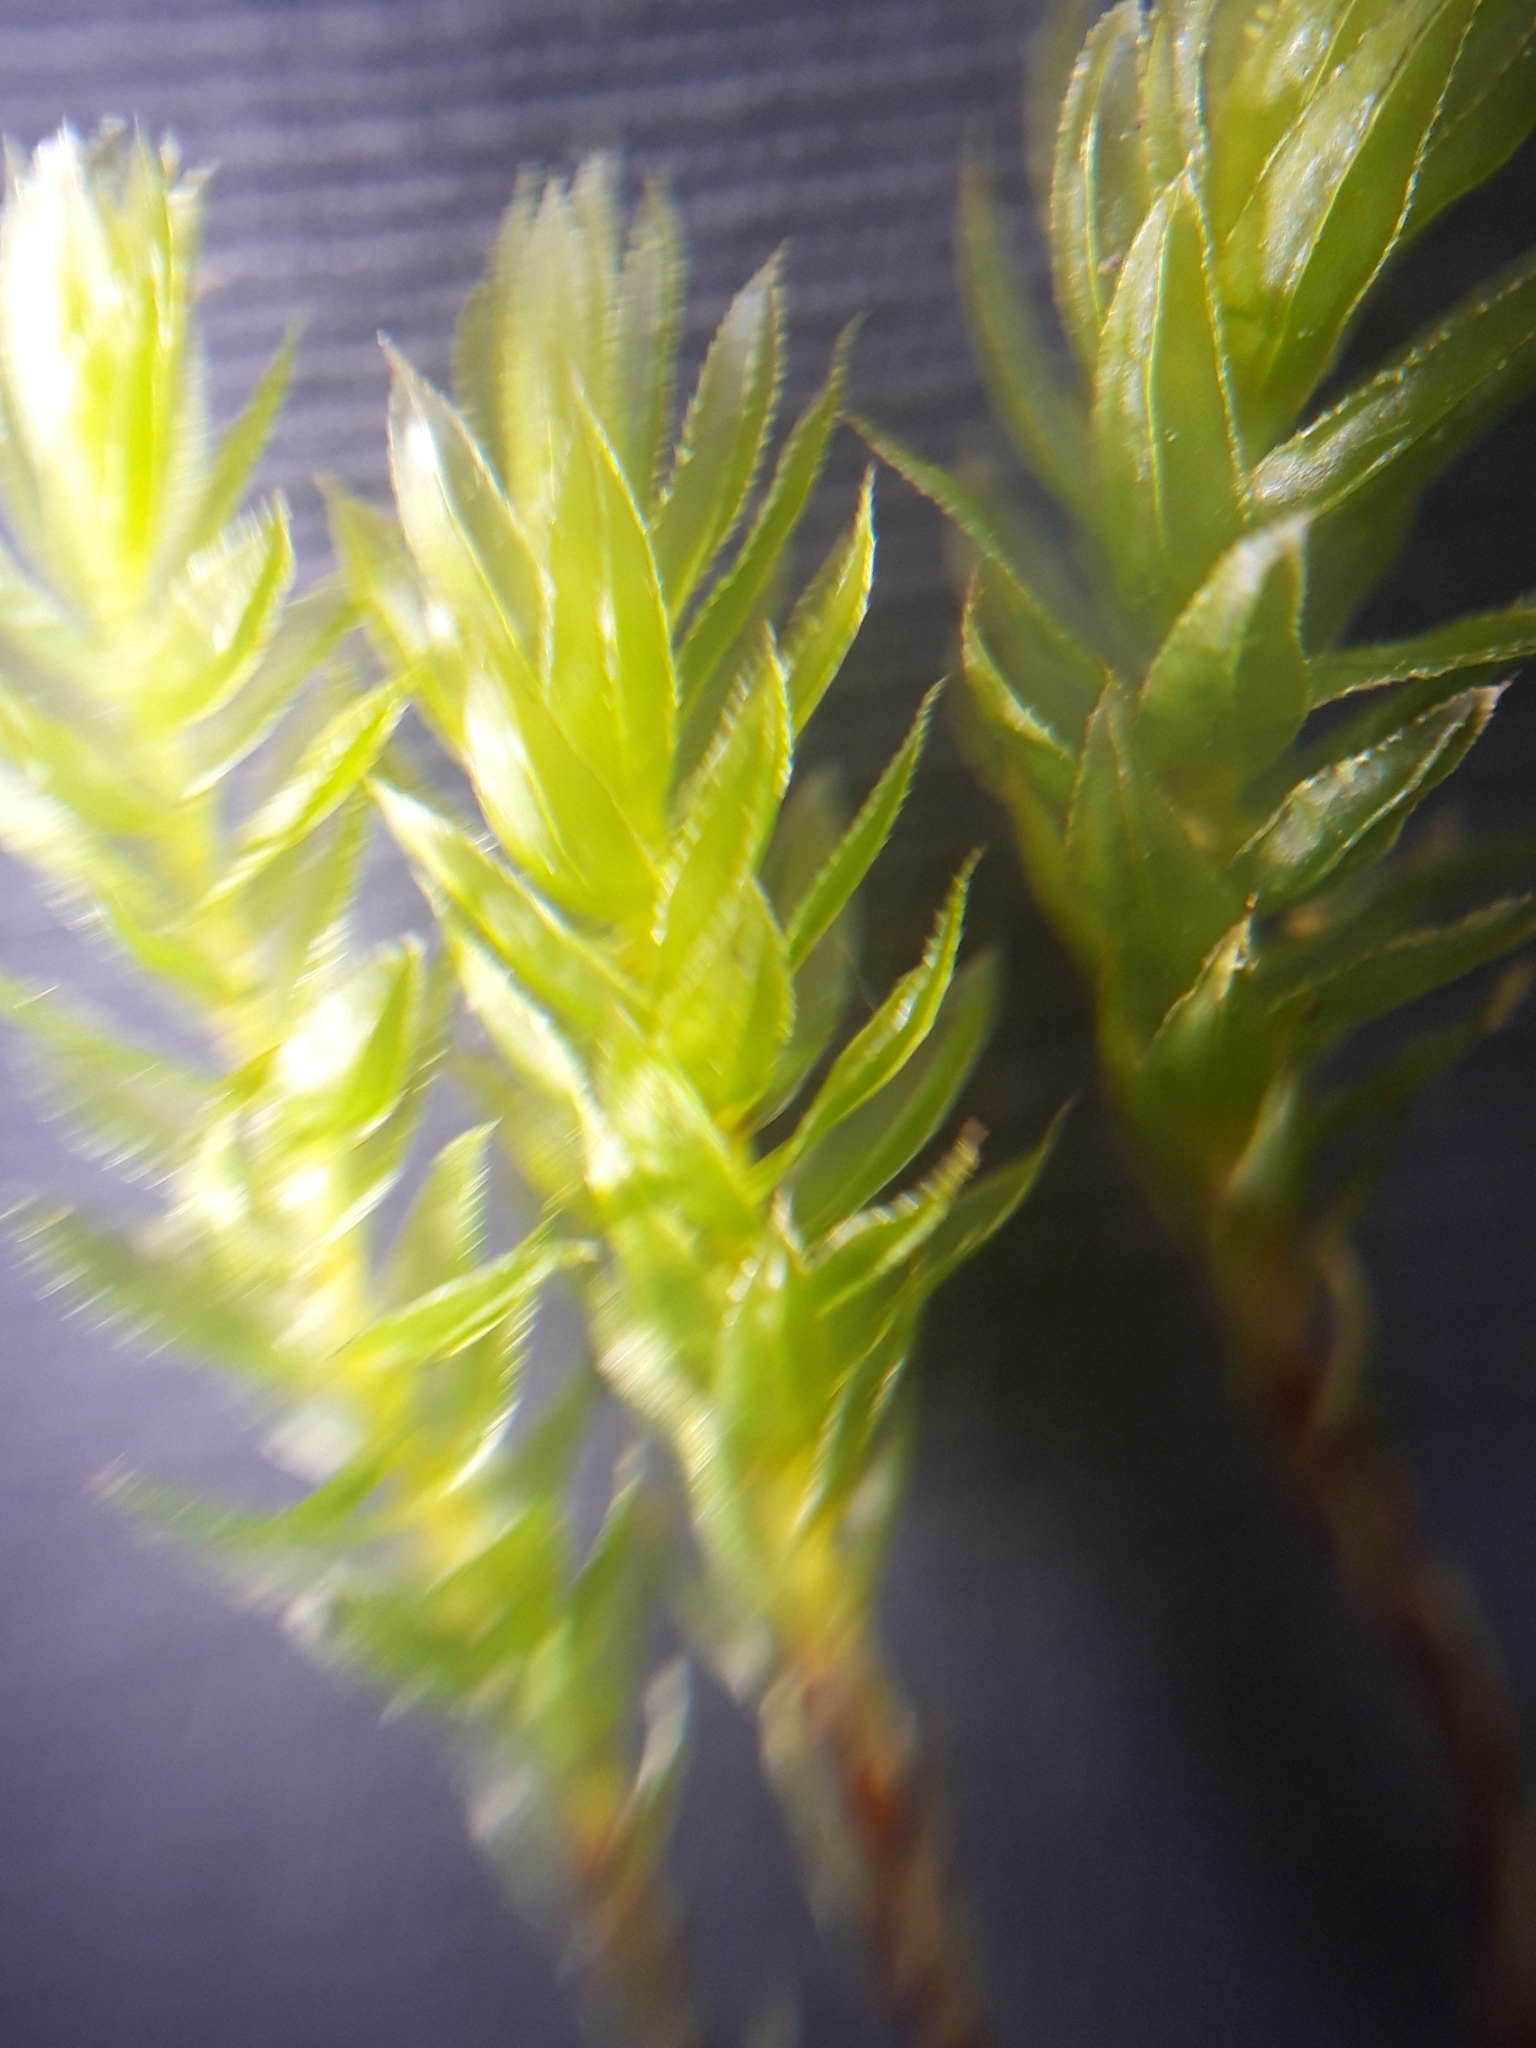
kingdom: Plantae
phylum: Bryophyta
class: Bryopsida
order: Bryales
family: Mniaceae
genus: Mnium
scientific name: Mnium hornum
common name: Swan's-neck leafy moss
